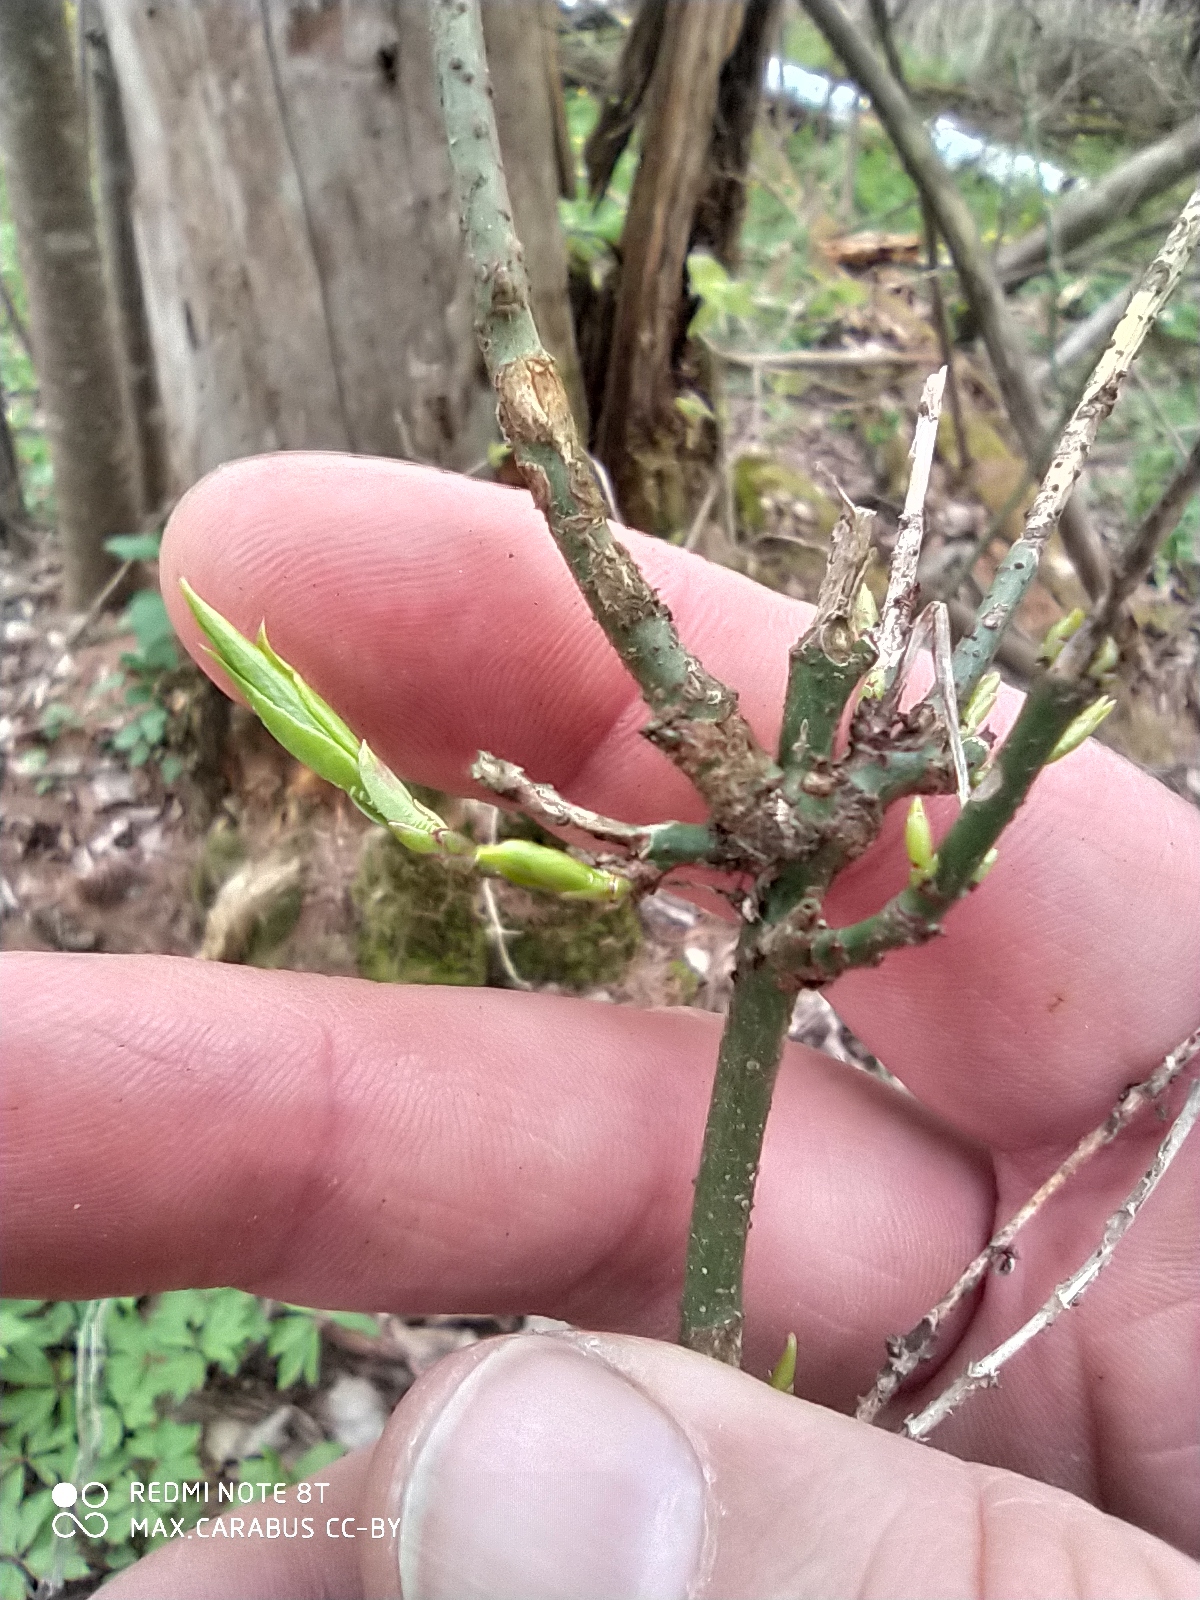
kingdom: Plantae
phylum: Tracheophyta
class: Magnoliopsida
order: Celastrales
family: Celastraceae
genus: Euonymus
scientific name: Euonymus verrucosus
